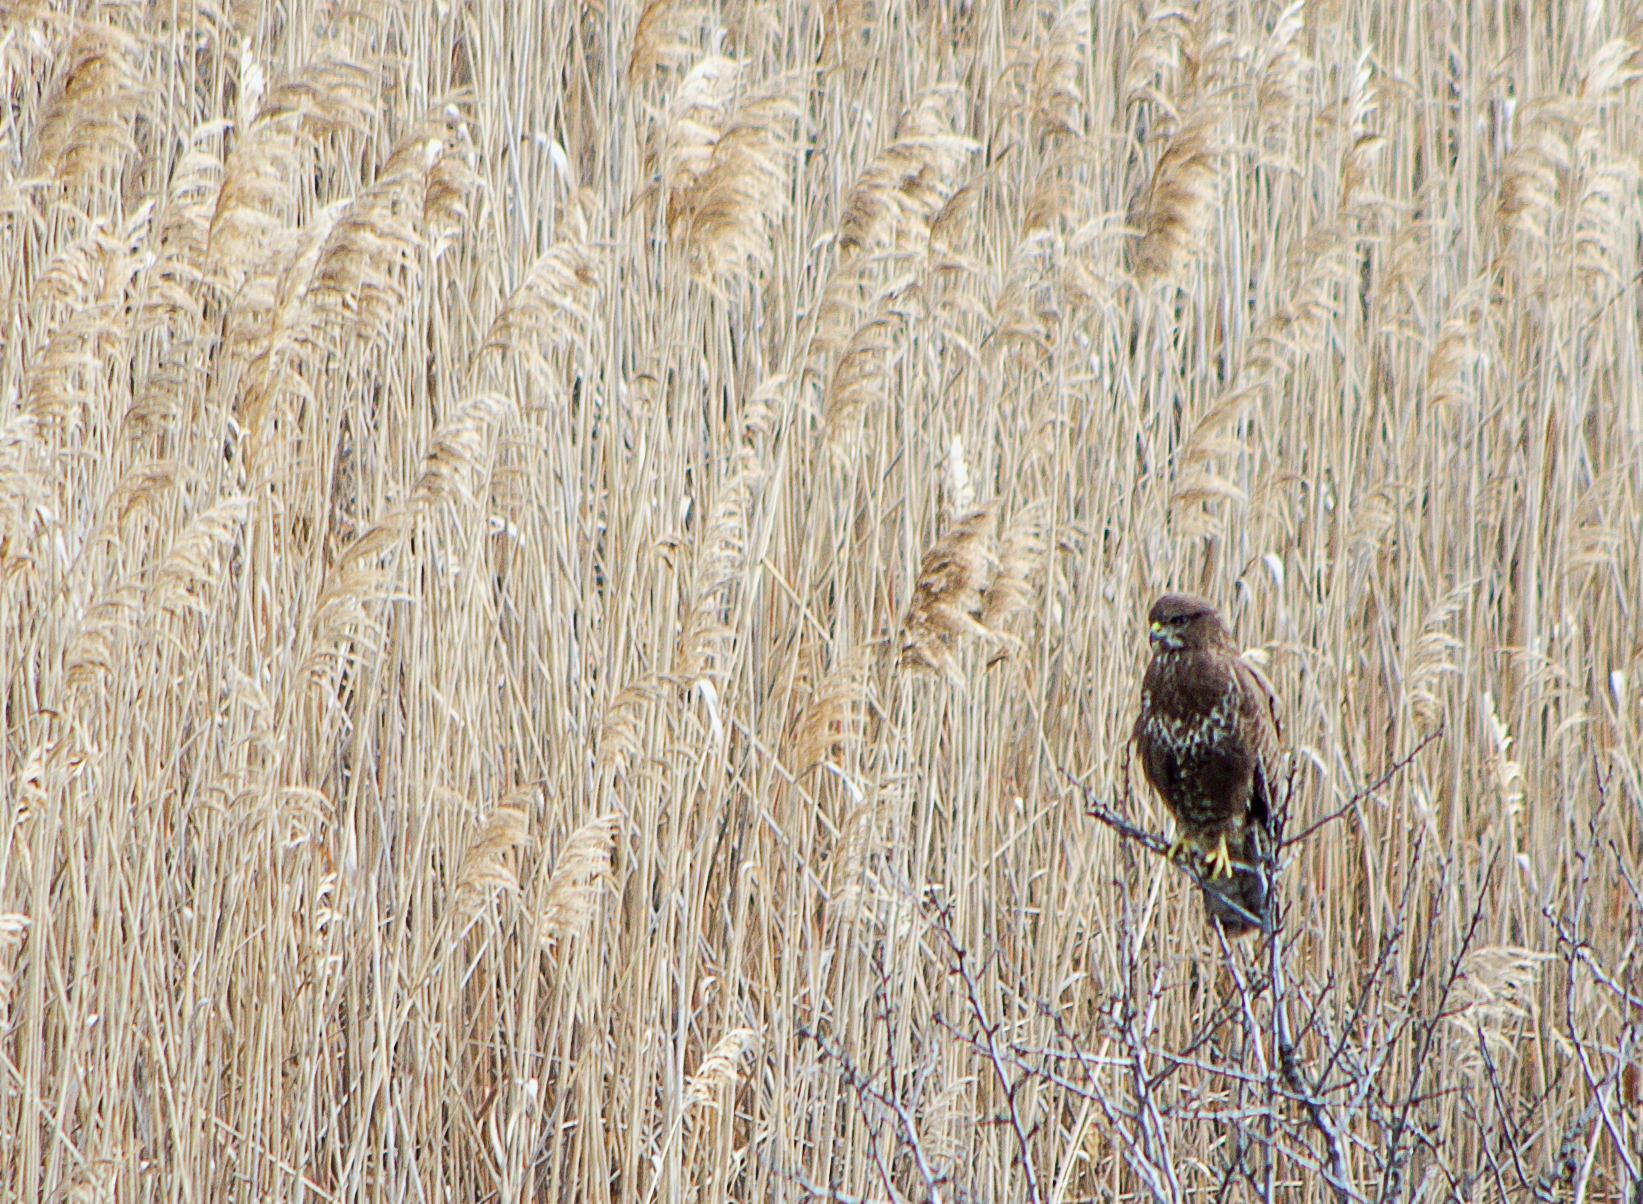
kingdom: Animalia
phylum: Chordata
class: Aves
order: Accipitriformes
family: Accipitridae
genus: Buteo
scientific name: Buteo buteo
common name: Common buzzard
